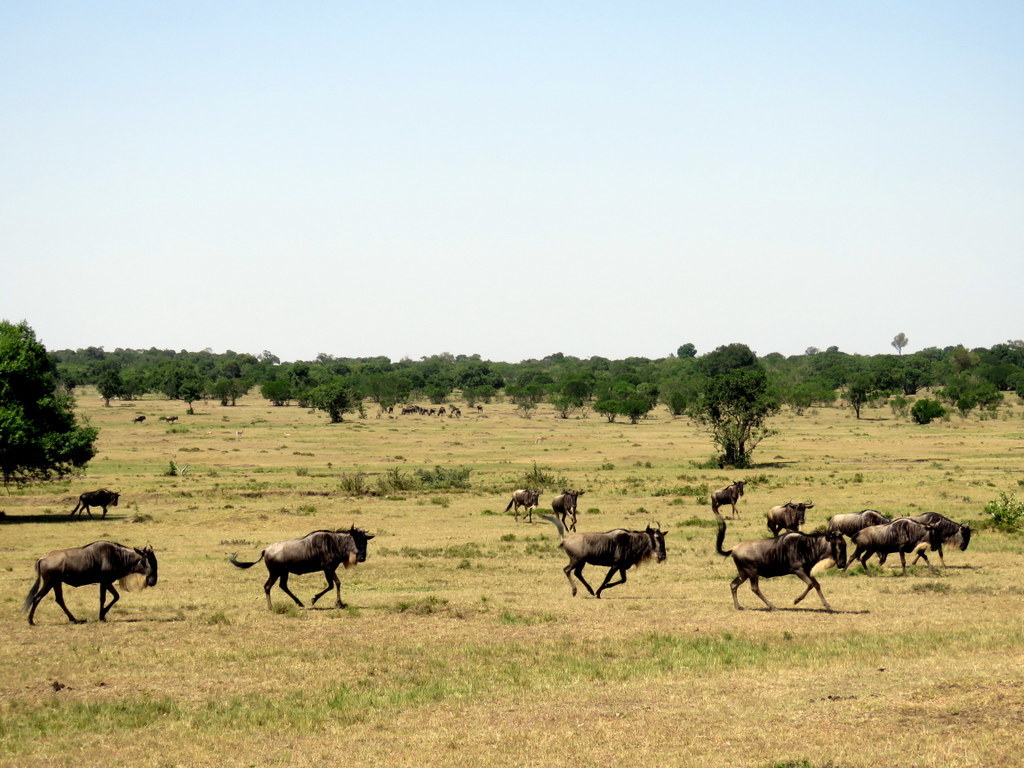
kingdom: Animalia
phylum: Chordata
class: Mammalia
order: Artiodactyla
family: Bovidae
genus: Connochaetes
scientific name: Connochaetes taurinus
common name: Blue wildebeest
